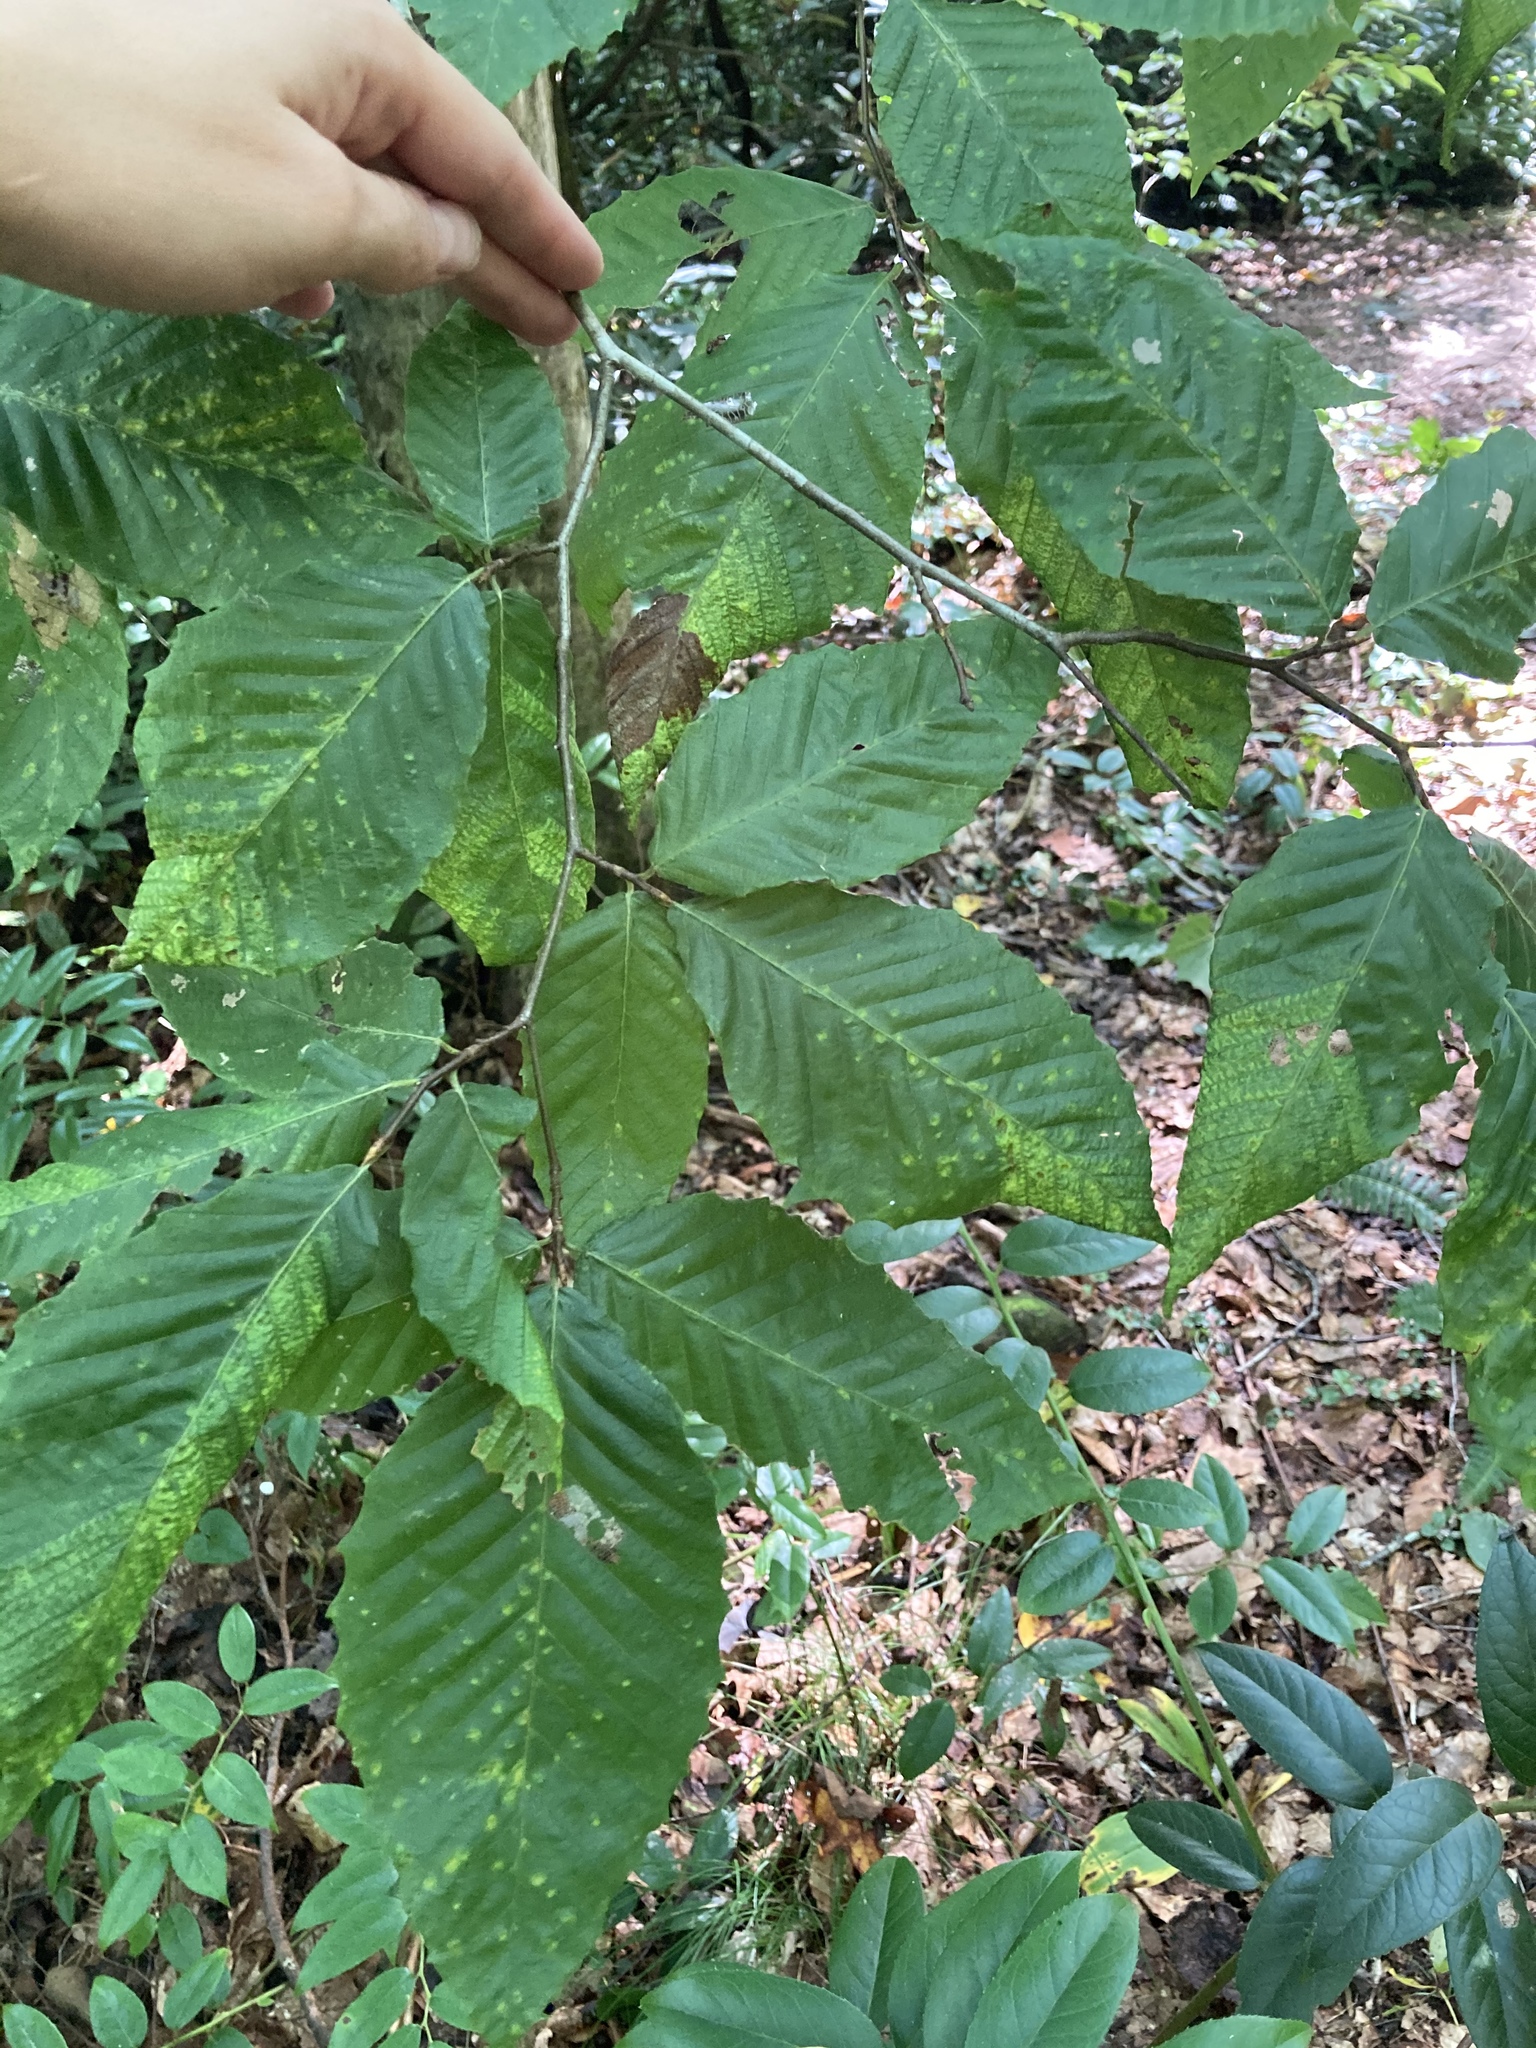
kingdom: Plantae
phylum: Tracheophyta
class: Magnoliopsida
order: Fagales
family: Fagaceae
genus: Fagus
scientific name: Fagus grandifolia
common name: American beech
